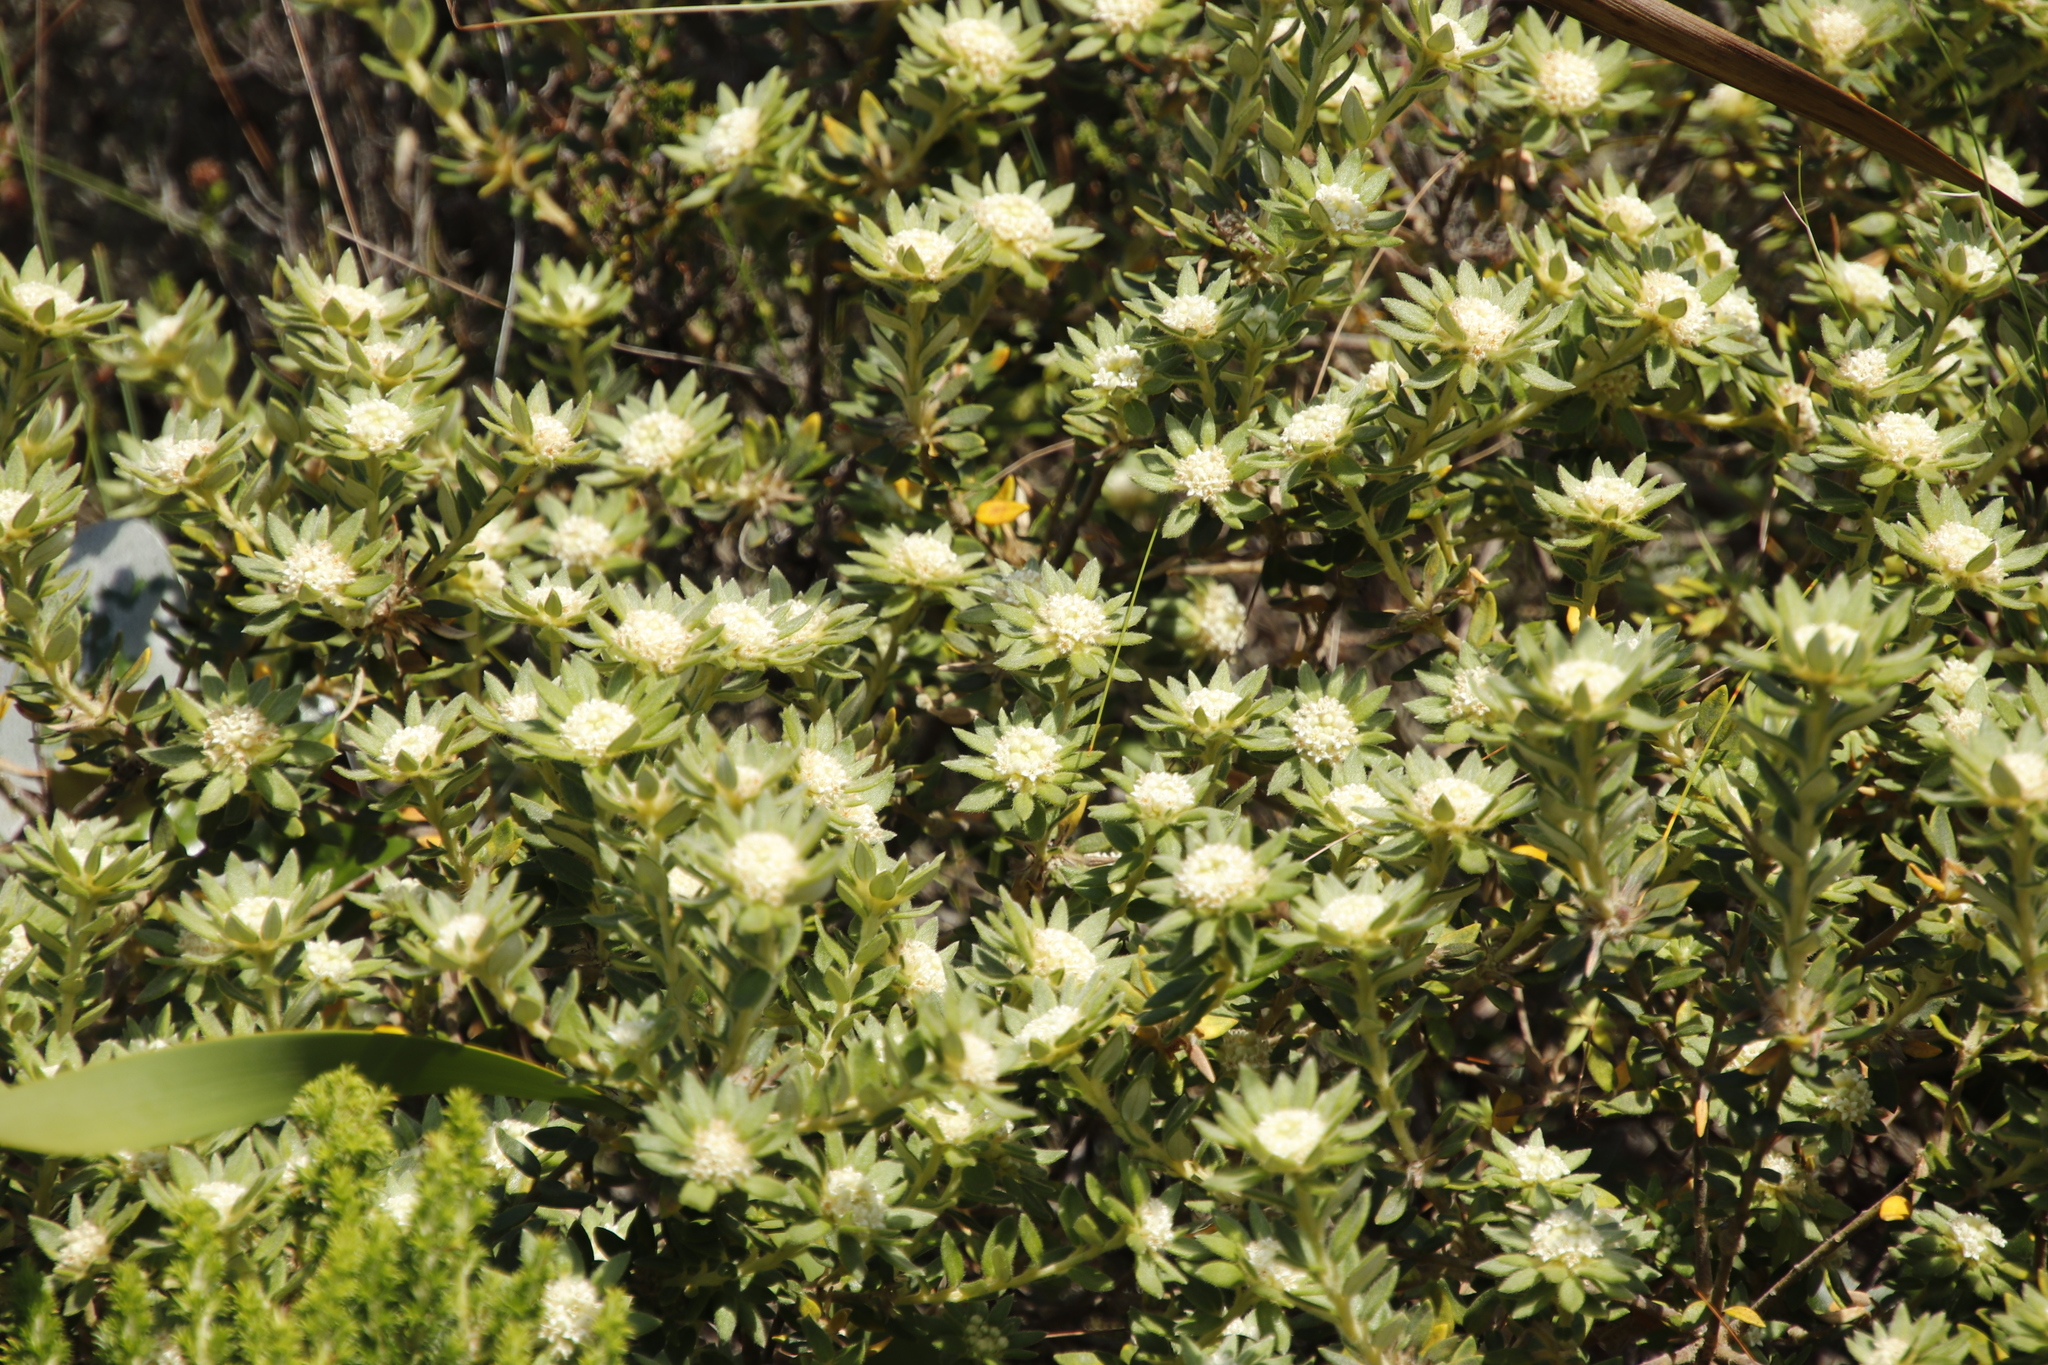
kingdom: Plantae
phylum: Tracheophyta
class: Magnoliopsida
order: Rosales
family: Rhamnaceae
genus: Phylica
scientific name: Phylica dioica
